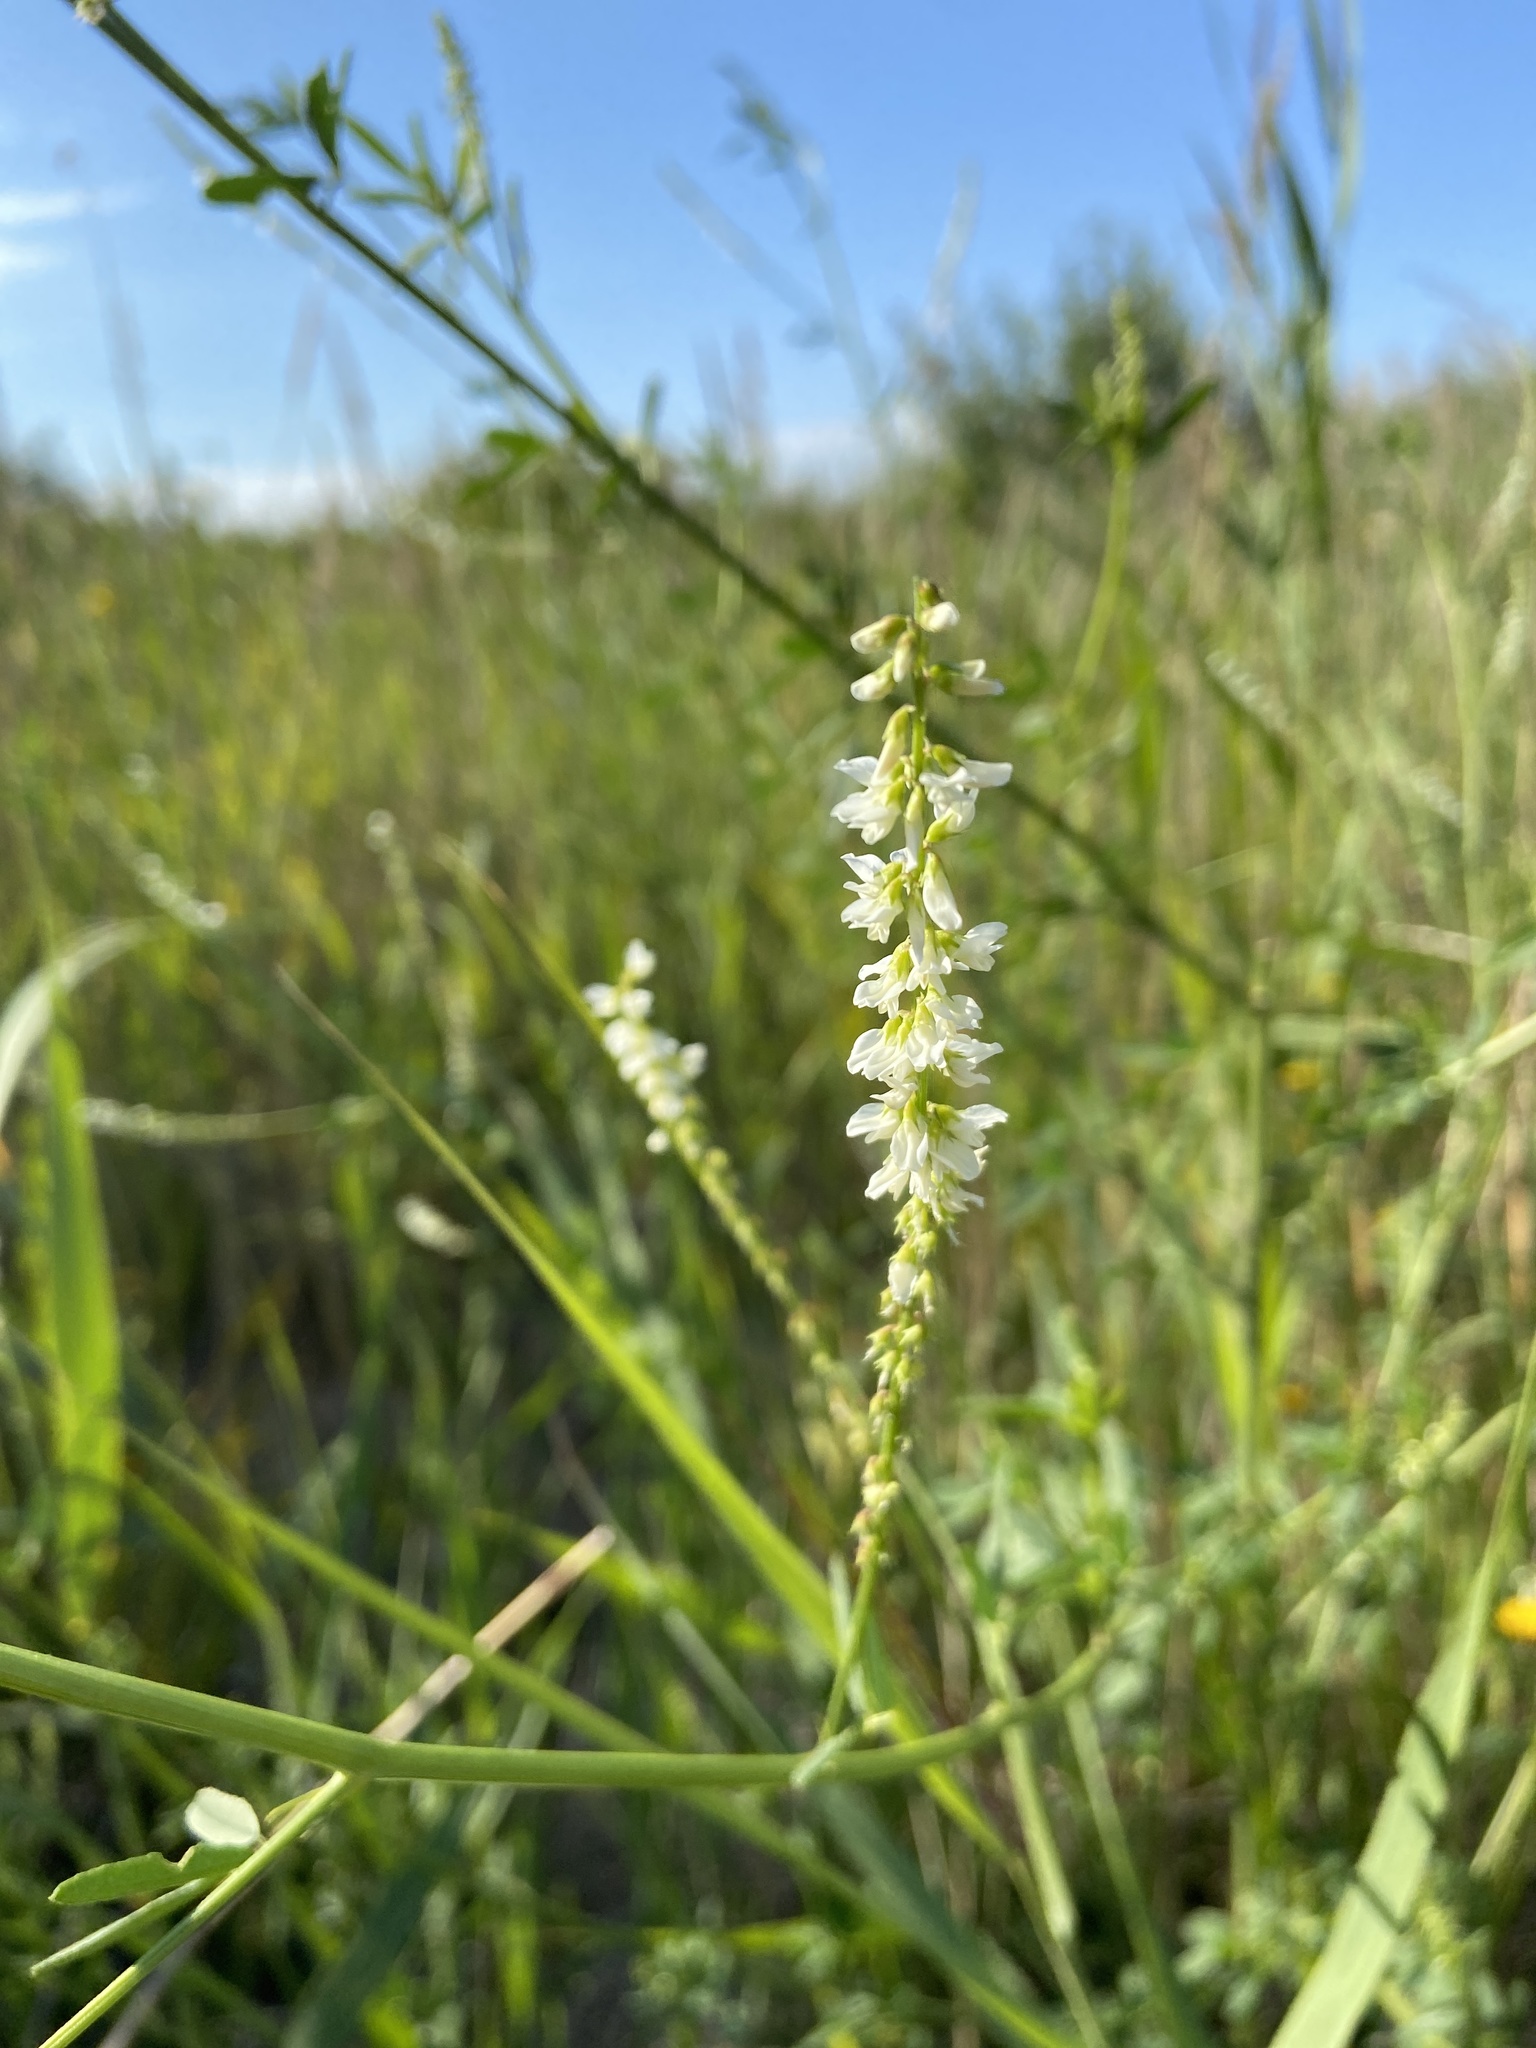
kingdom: Plantae
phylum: Tracheophyta
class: Magnoliopsida
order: Fabales
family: Fabaceae
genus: Melilotus
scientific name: Melilotus albus
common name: White melilot
